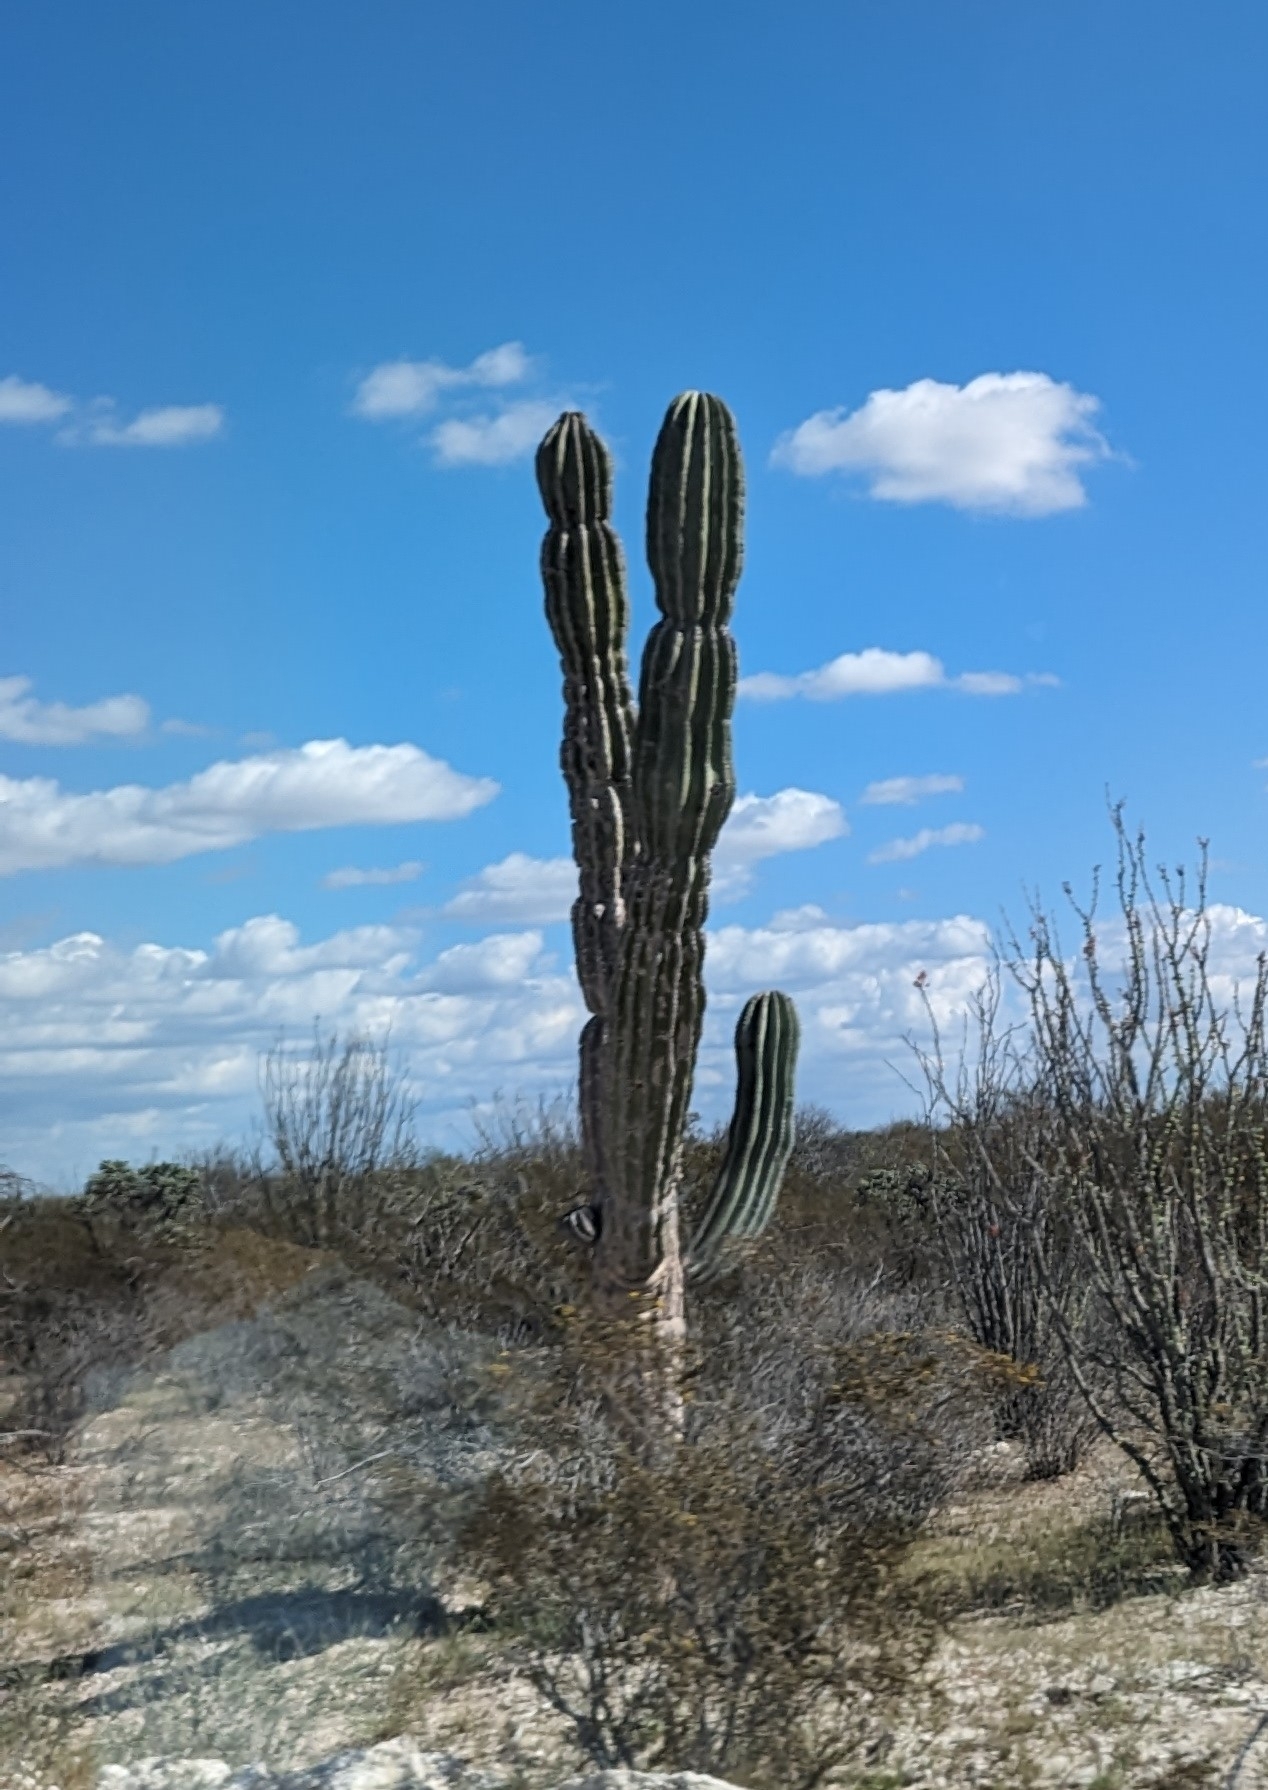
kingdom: Plantae
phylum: Tracheophyta
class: Magnoliopsida
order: Caryophyllales
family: Cactaceae
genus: Pachycereus
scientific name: Pachycereus pringlei
